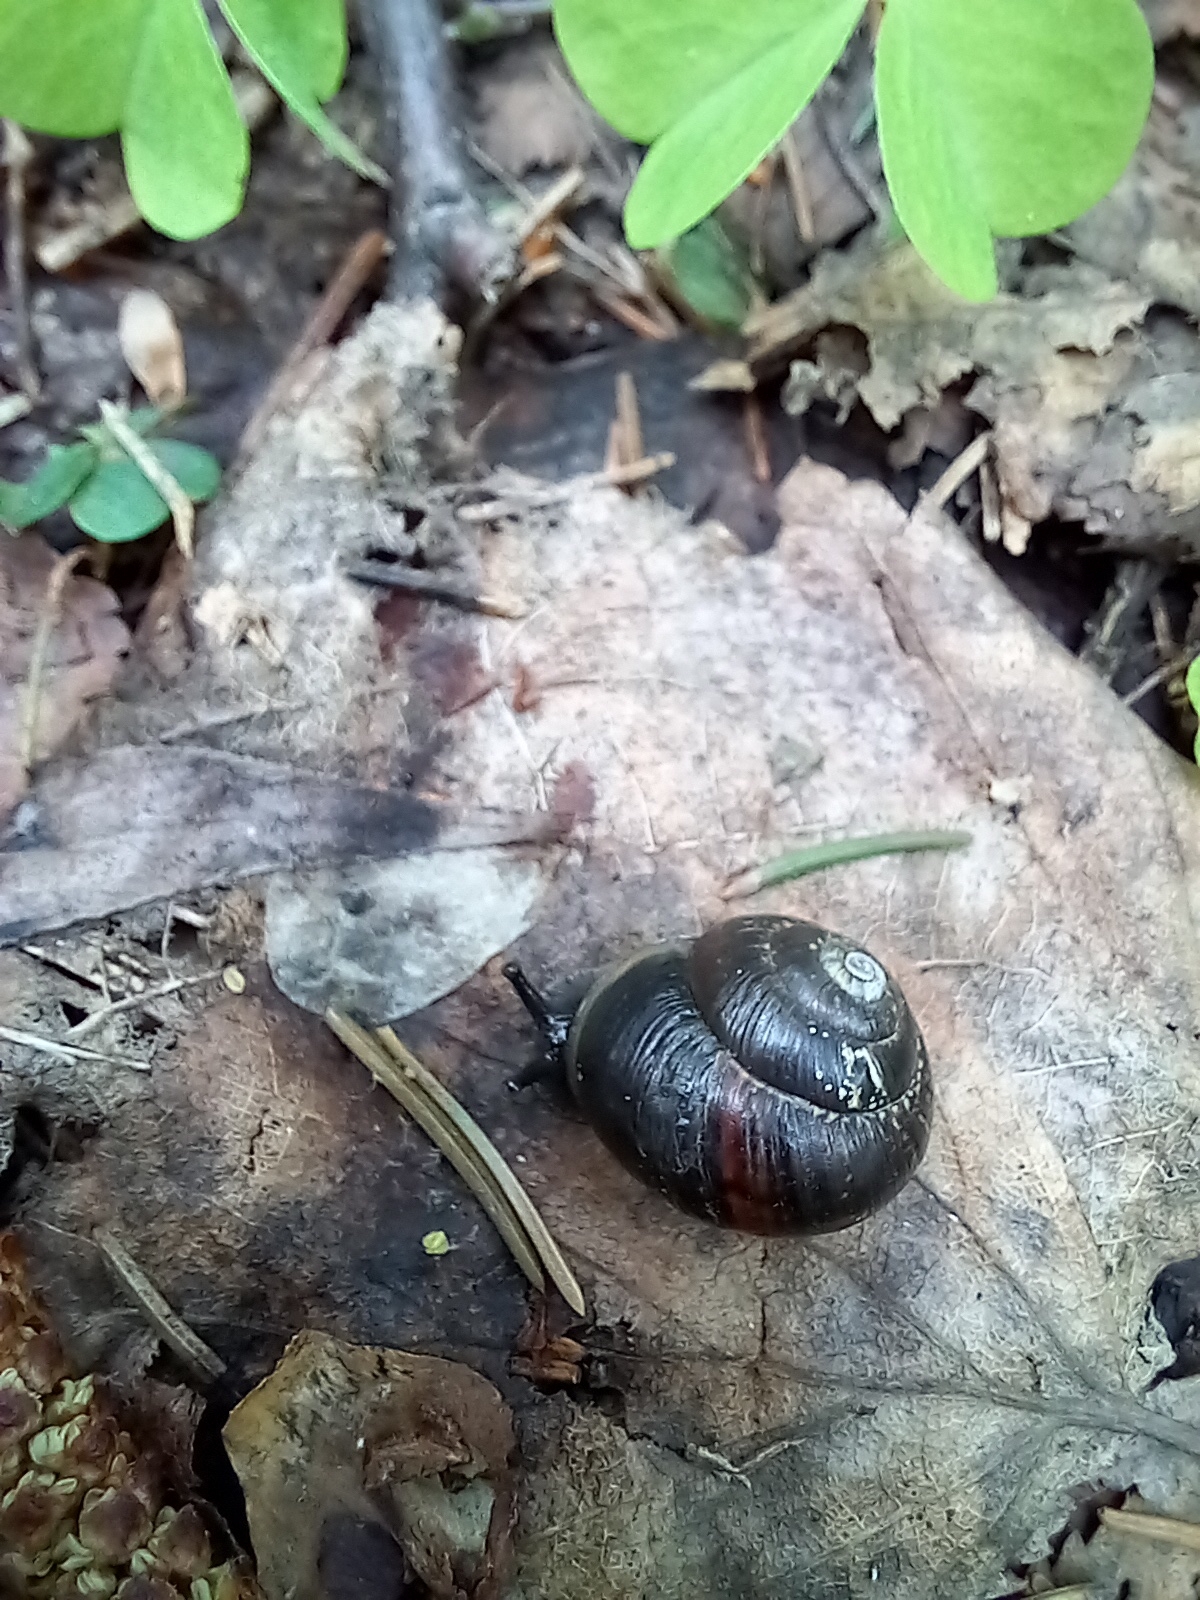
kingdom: Animalia
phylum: Mollusca
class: Gastropoda
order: Stylommatophora
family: Helicidae
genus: Arianta
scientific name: Arianta arbustorum
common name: Copse snail
